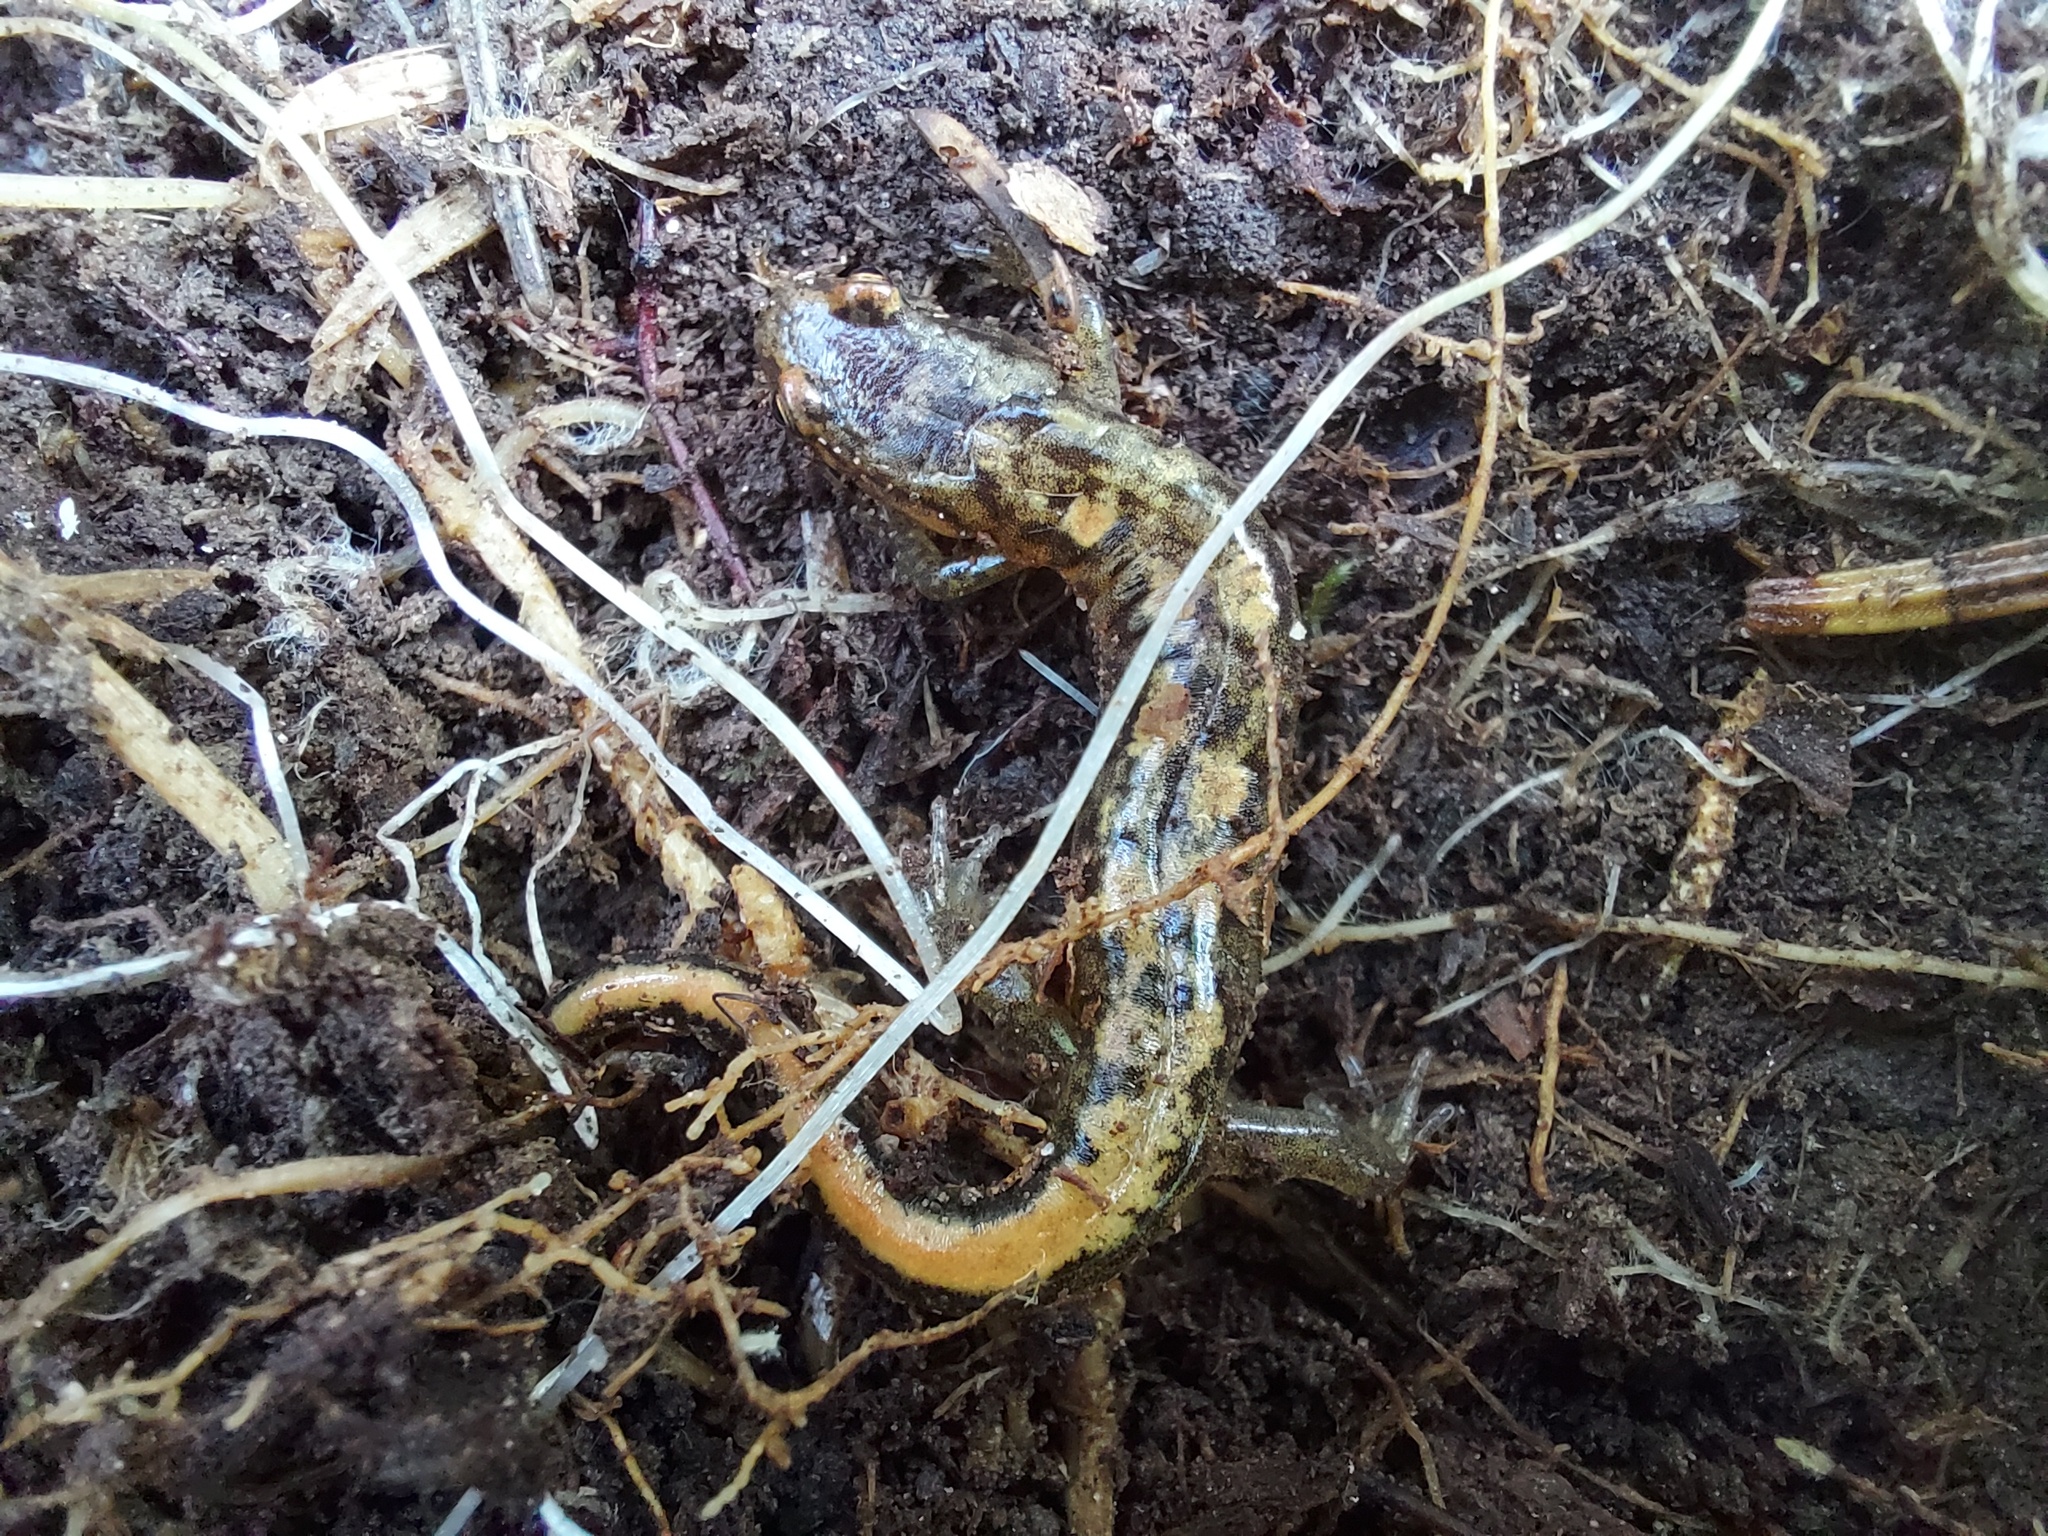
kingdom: Animalia
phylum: Chordata
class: Amphibia
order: Caudata
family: Plethodontidae
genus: Desmognathus
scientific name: Desmognathus orestes
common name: Blue ridge dusky salamander
